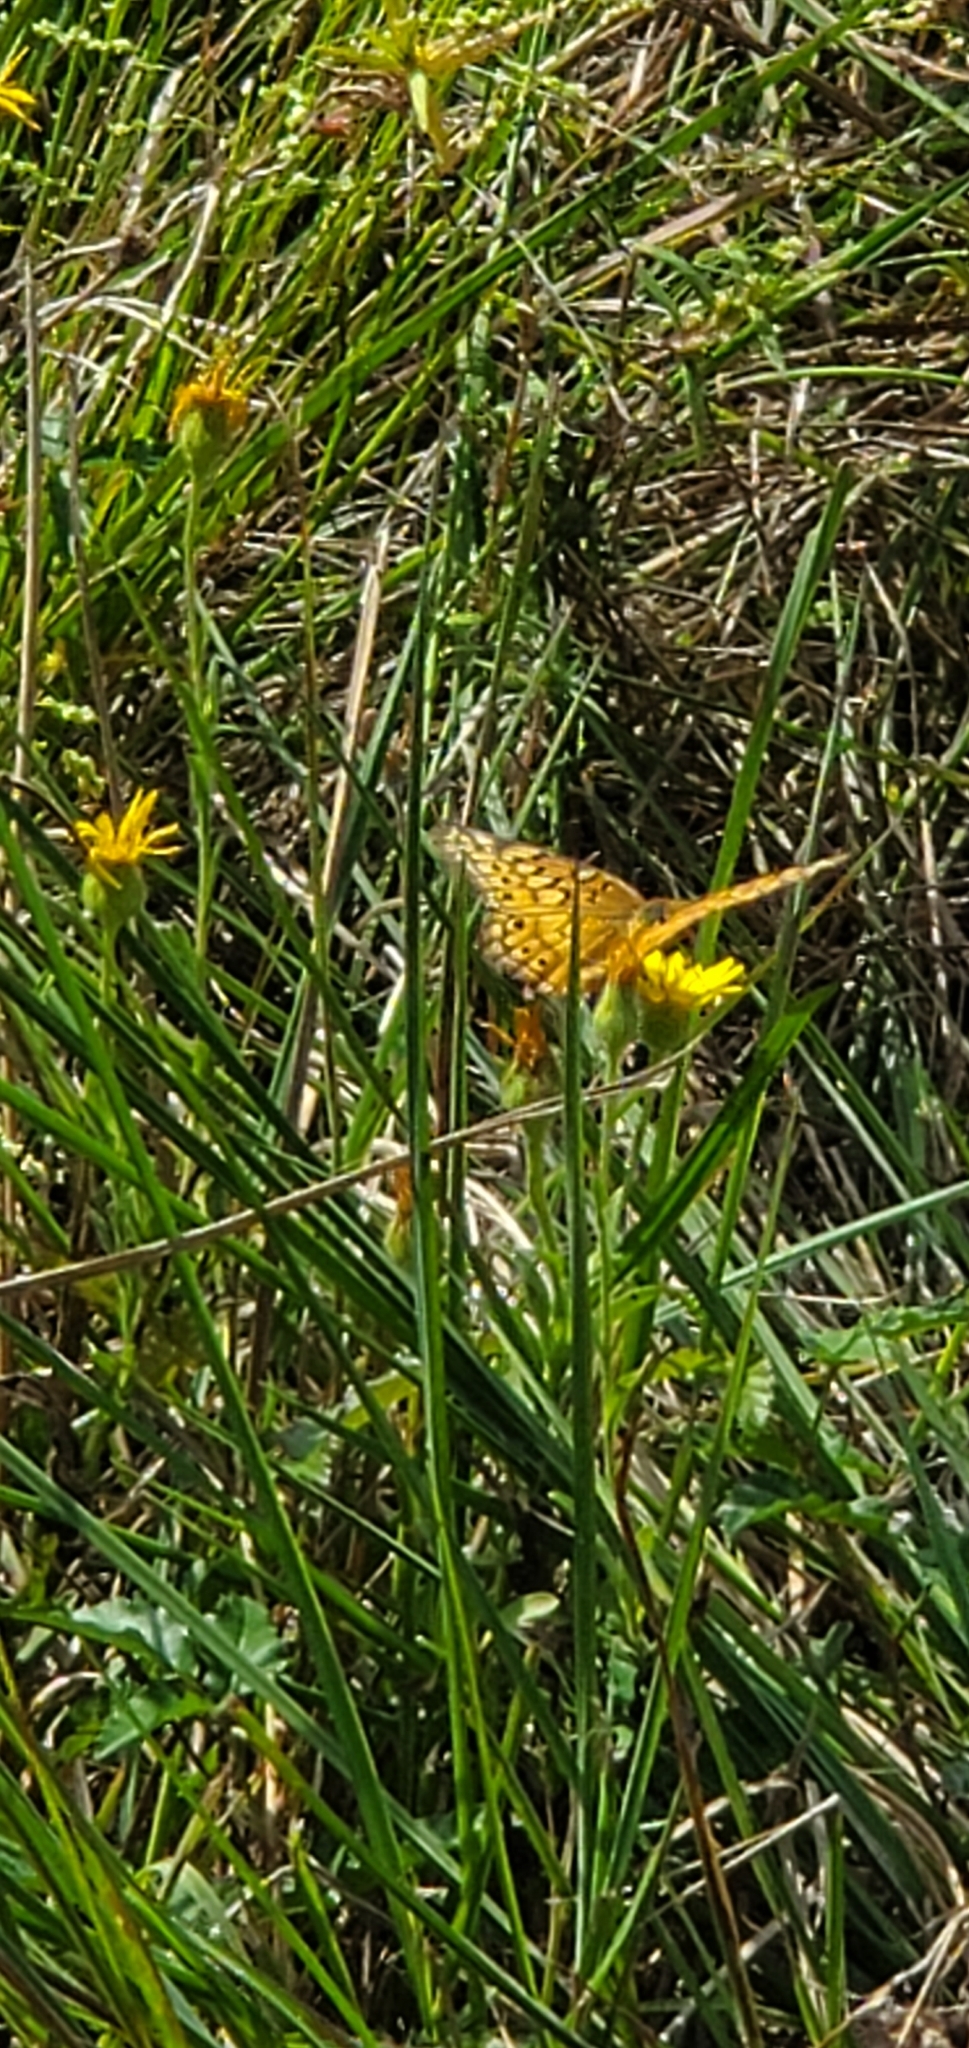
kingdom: Animalia
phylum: Arthropoda
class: Insecta
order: Lepidoptera
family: Nymphalidae
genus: Euptoieta
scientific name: Euptoieta claudia
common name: Variegated fritillary
